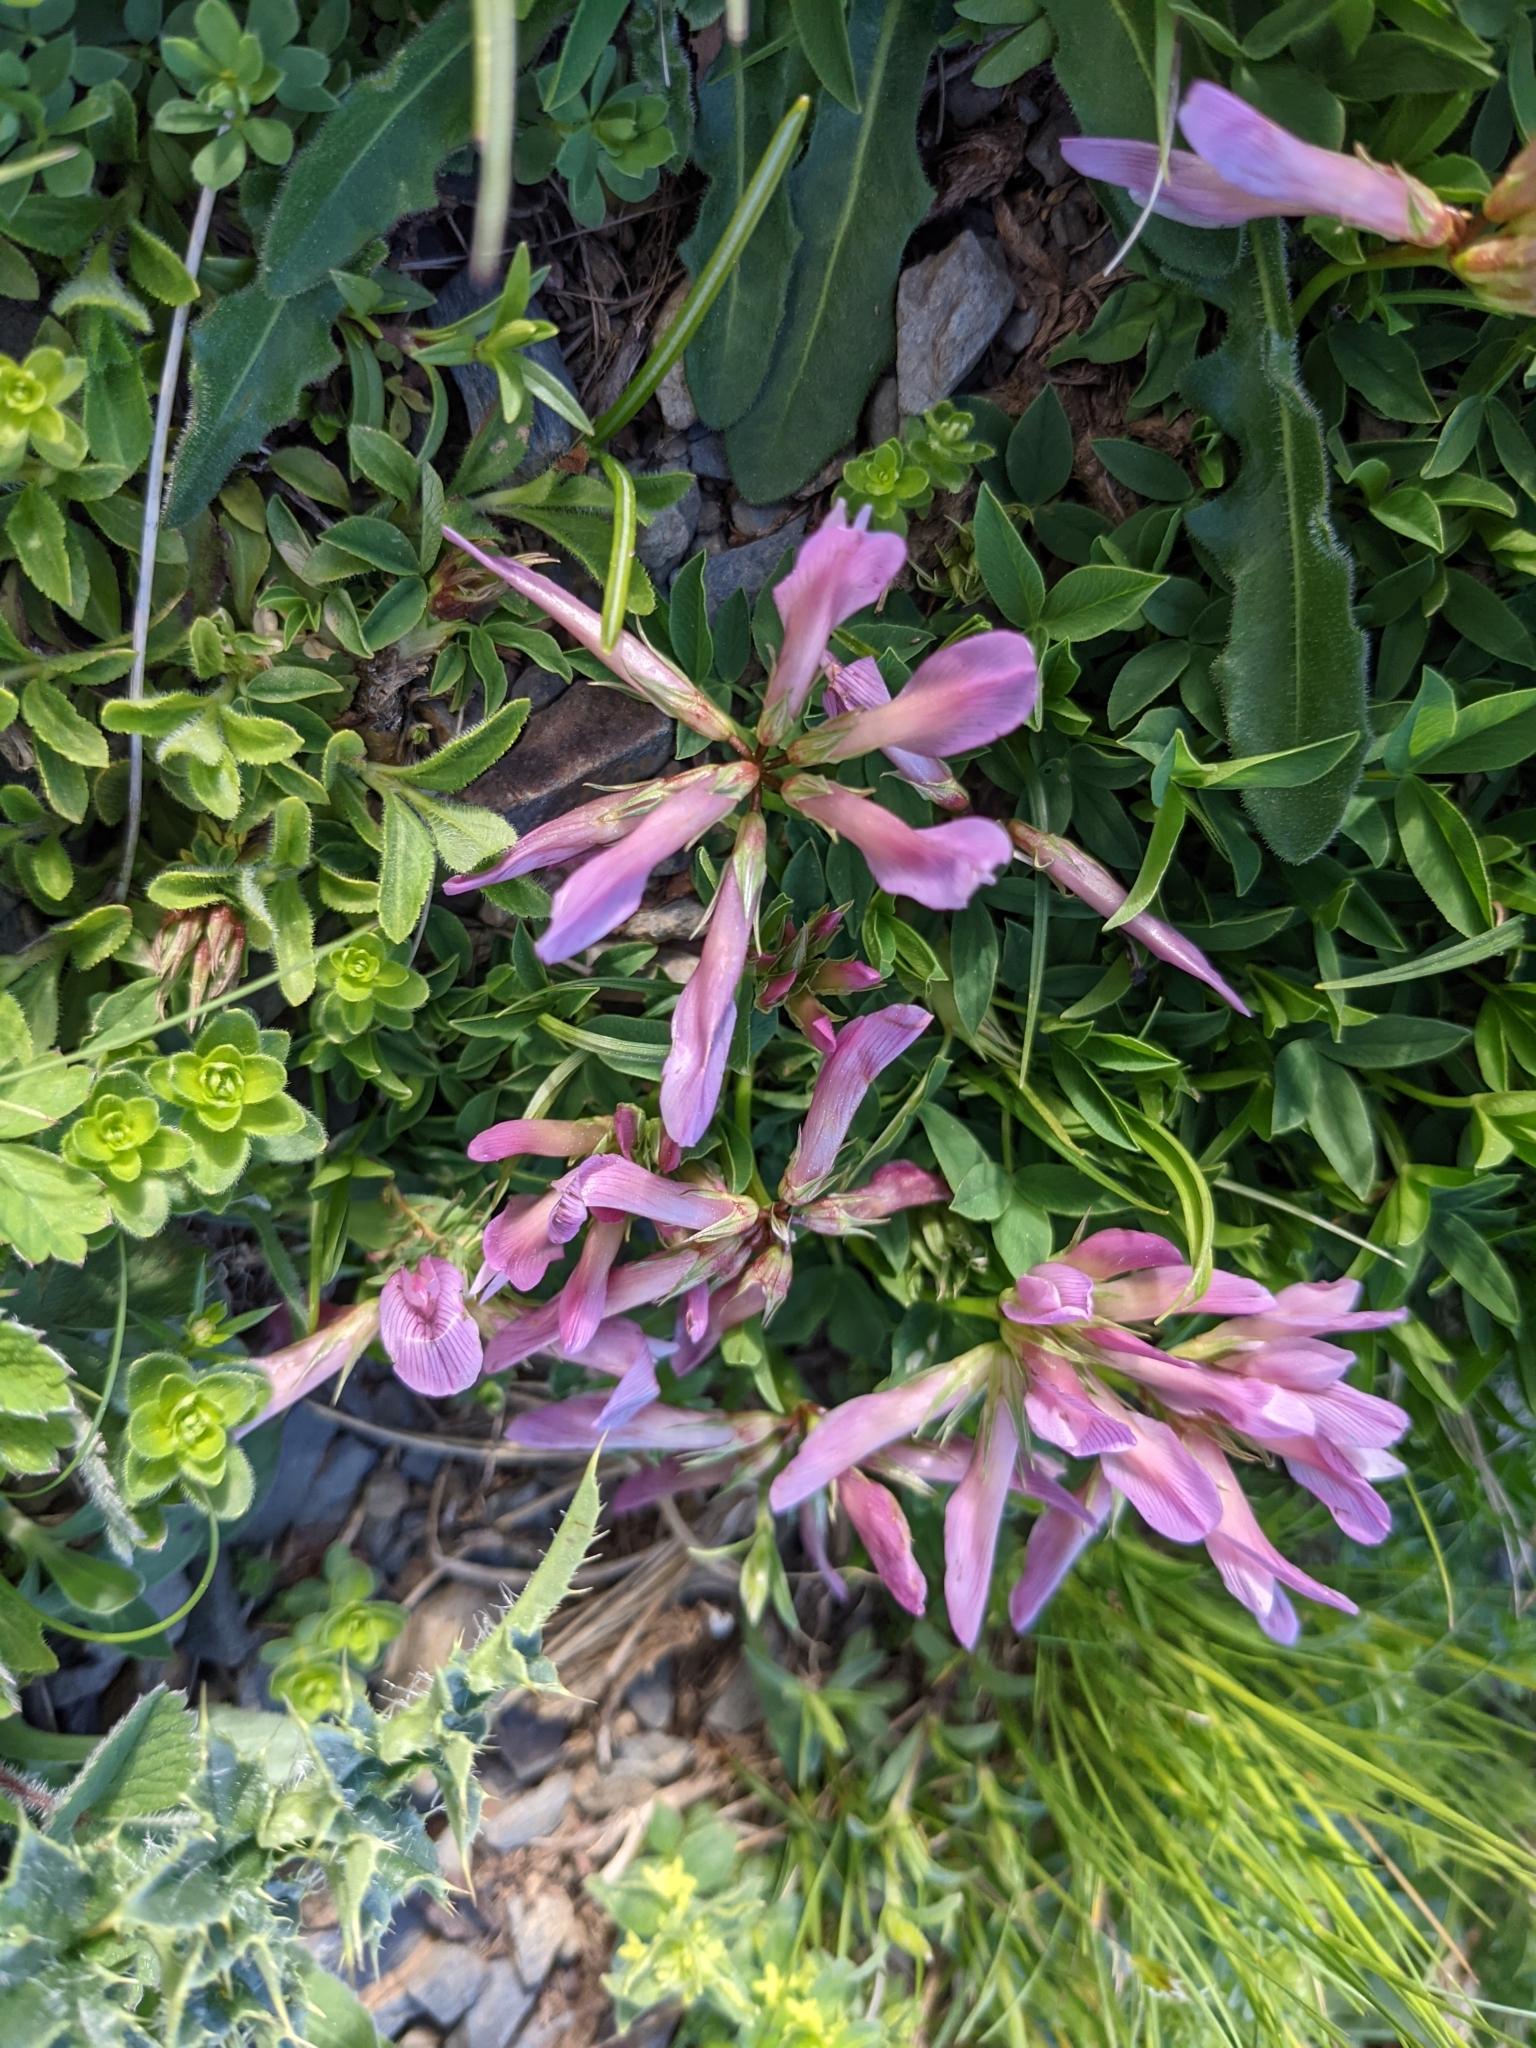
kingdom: Plantae
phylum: Tracheophyta
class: Magnoliopsida
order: Fabales
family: Fabaceae
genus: Trifolium
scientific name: Trifolium alpinum
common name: Alpine clover
